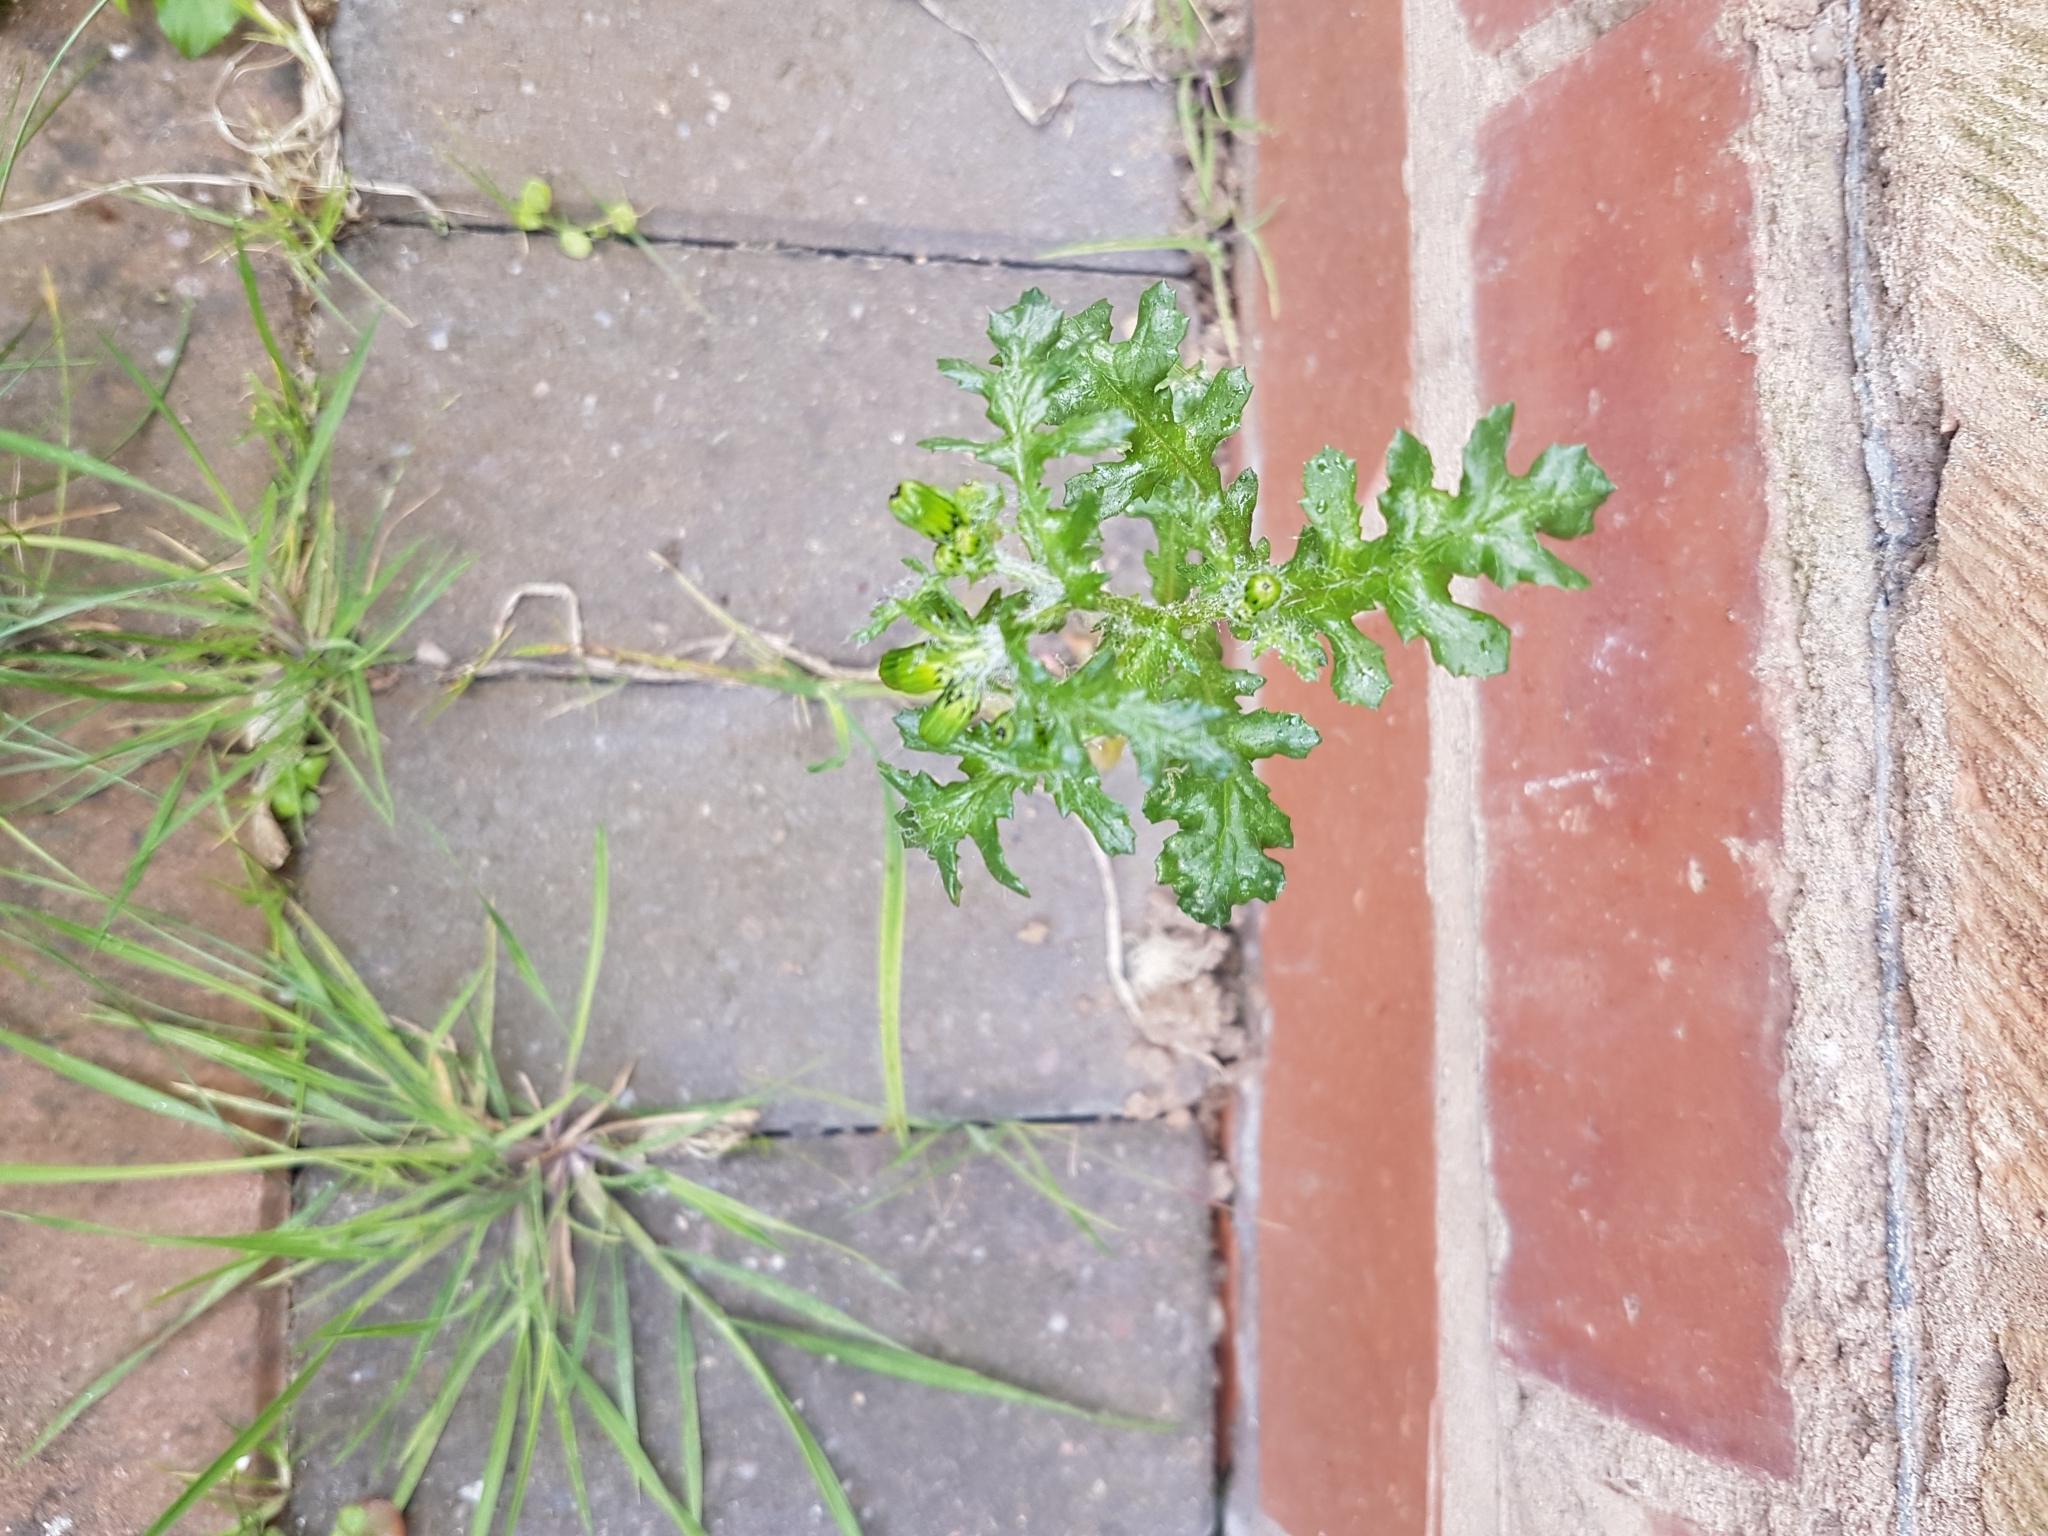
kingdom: Plantae
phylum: Tracheophyta
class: Magnoliopsida
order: Asterales
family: Asteraceae
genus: Senecio
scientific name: Senecio vulgaris
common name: Old-man-in-the-spring
